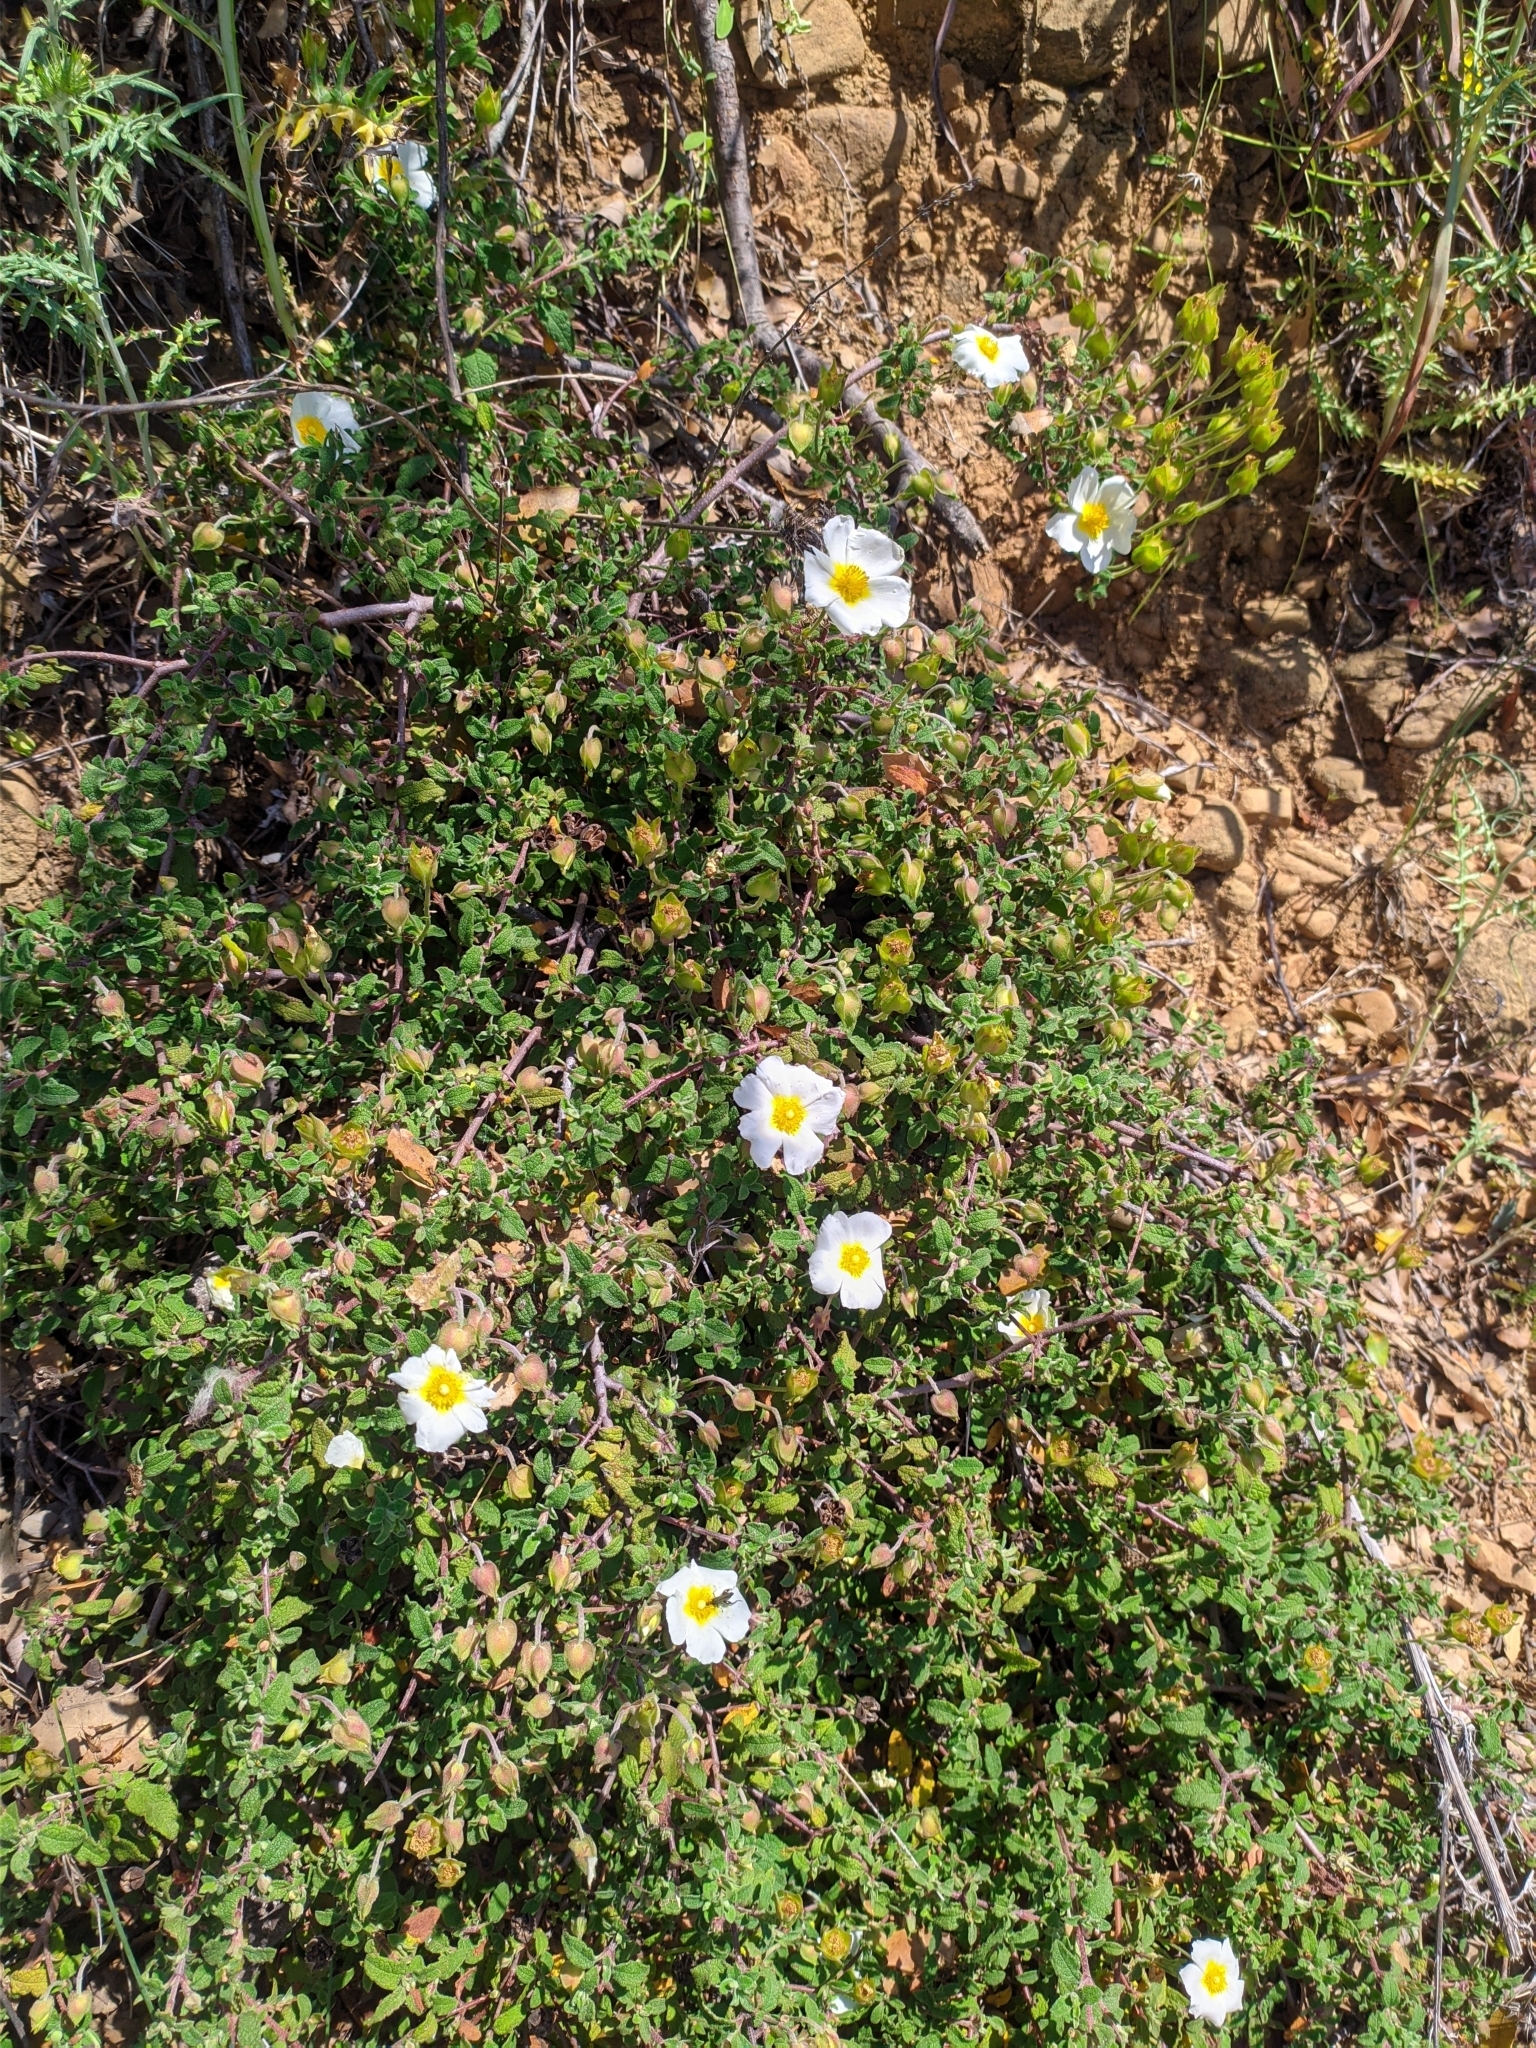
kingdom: Plantae
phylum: Tracheophyta
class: Magnoliopsida
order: Malvales
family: Cistaceae
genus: Cistus
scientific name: Cistus salviifolius
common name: Salvia cistus
